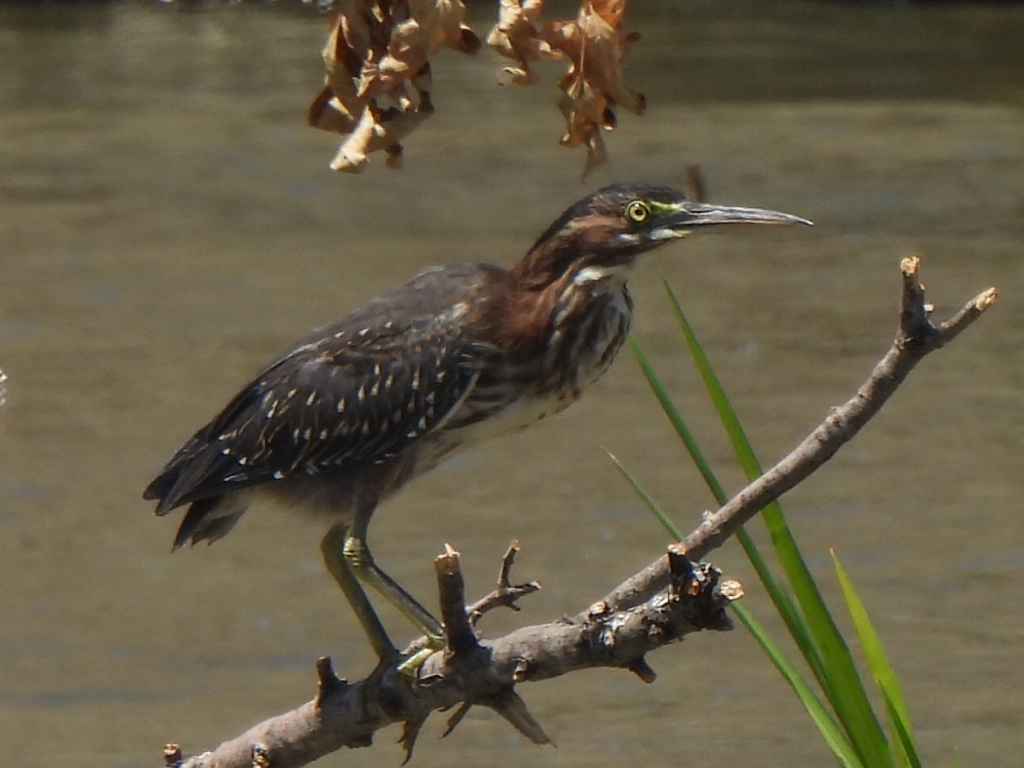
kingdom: Animalia
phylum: Chordata
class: Aves
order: Pelecaniformes
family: Ardeidae
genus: Butorides
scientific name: Butorides virescens
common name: Green heron
